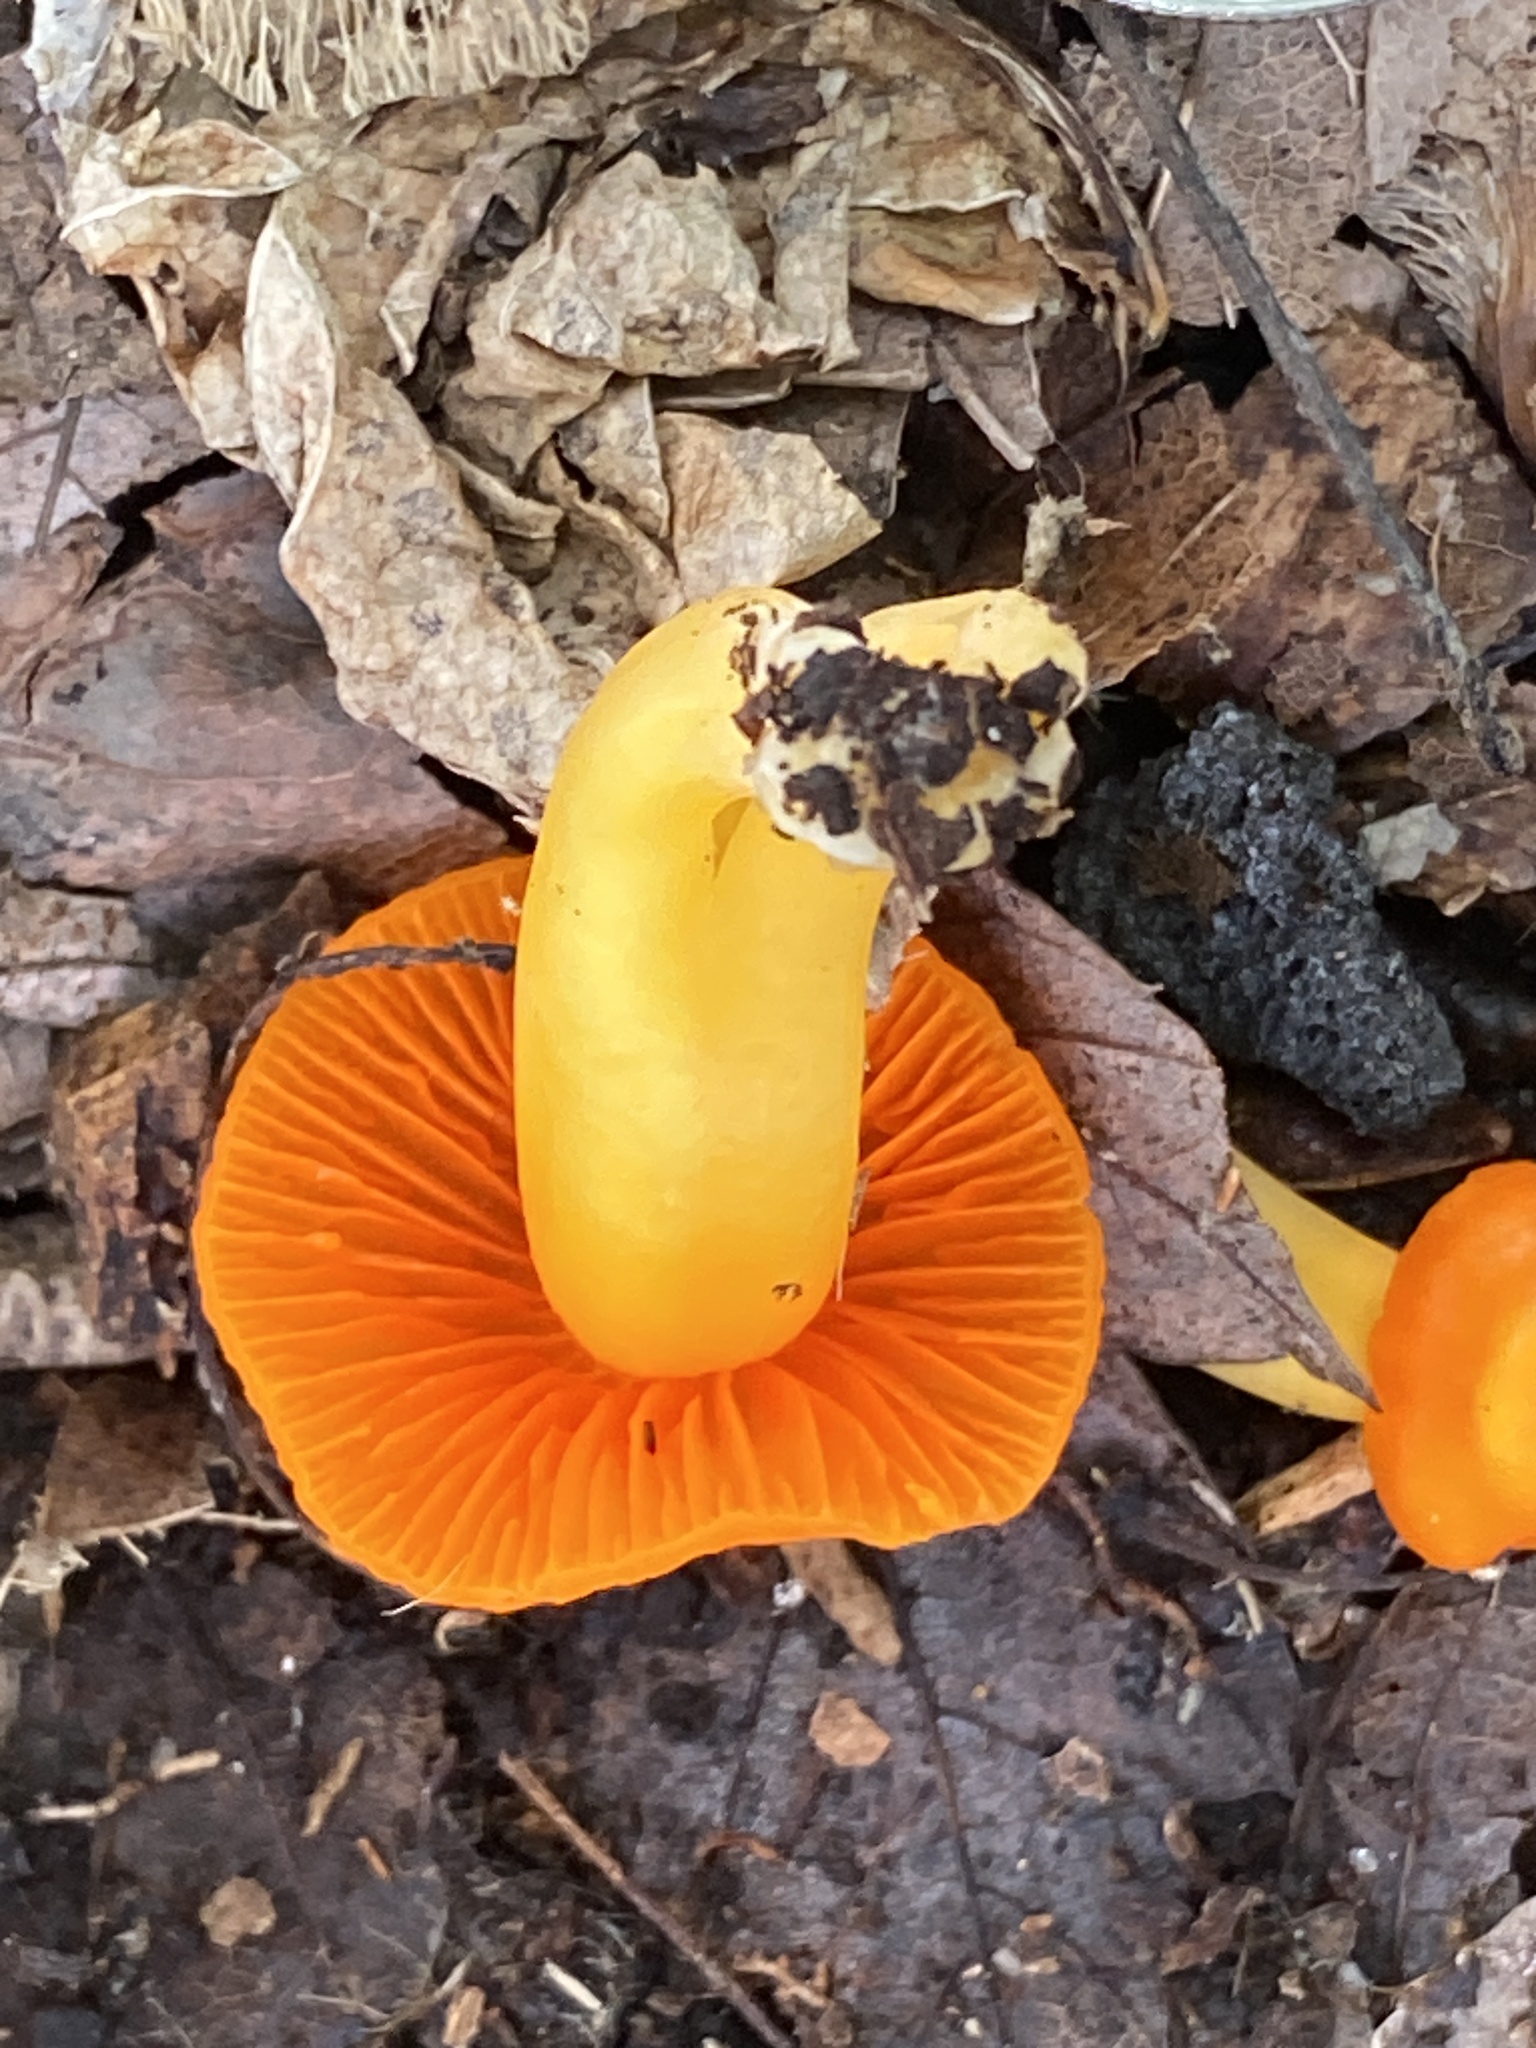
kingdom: Fungi
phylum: Basidiomycota
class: Agaricomycetes
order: Agaricales
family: Hygrophoraceae
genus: Humidicutis
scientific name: Humidicutis marginata
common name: Orange gilled waxcap
